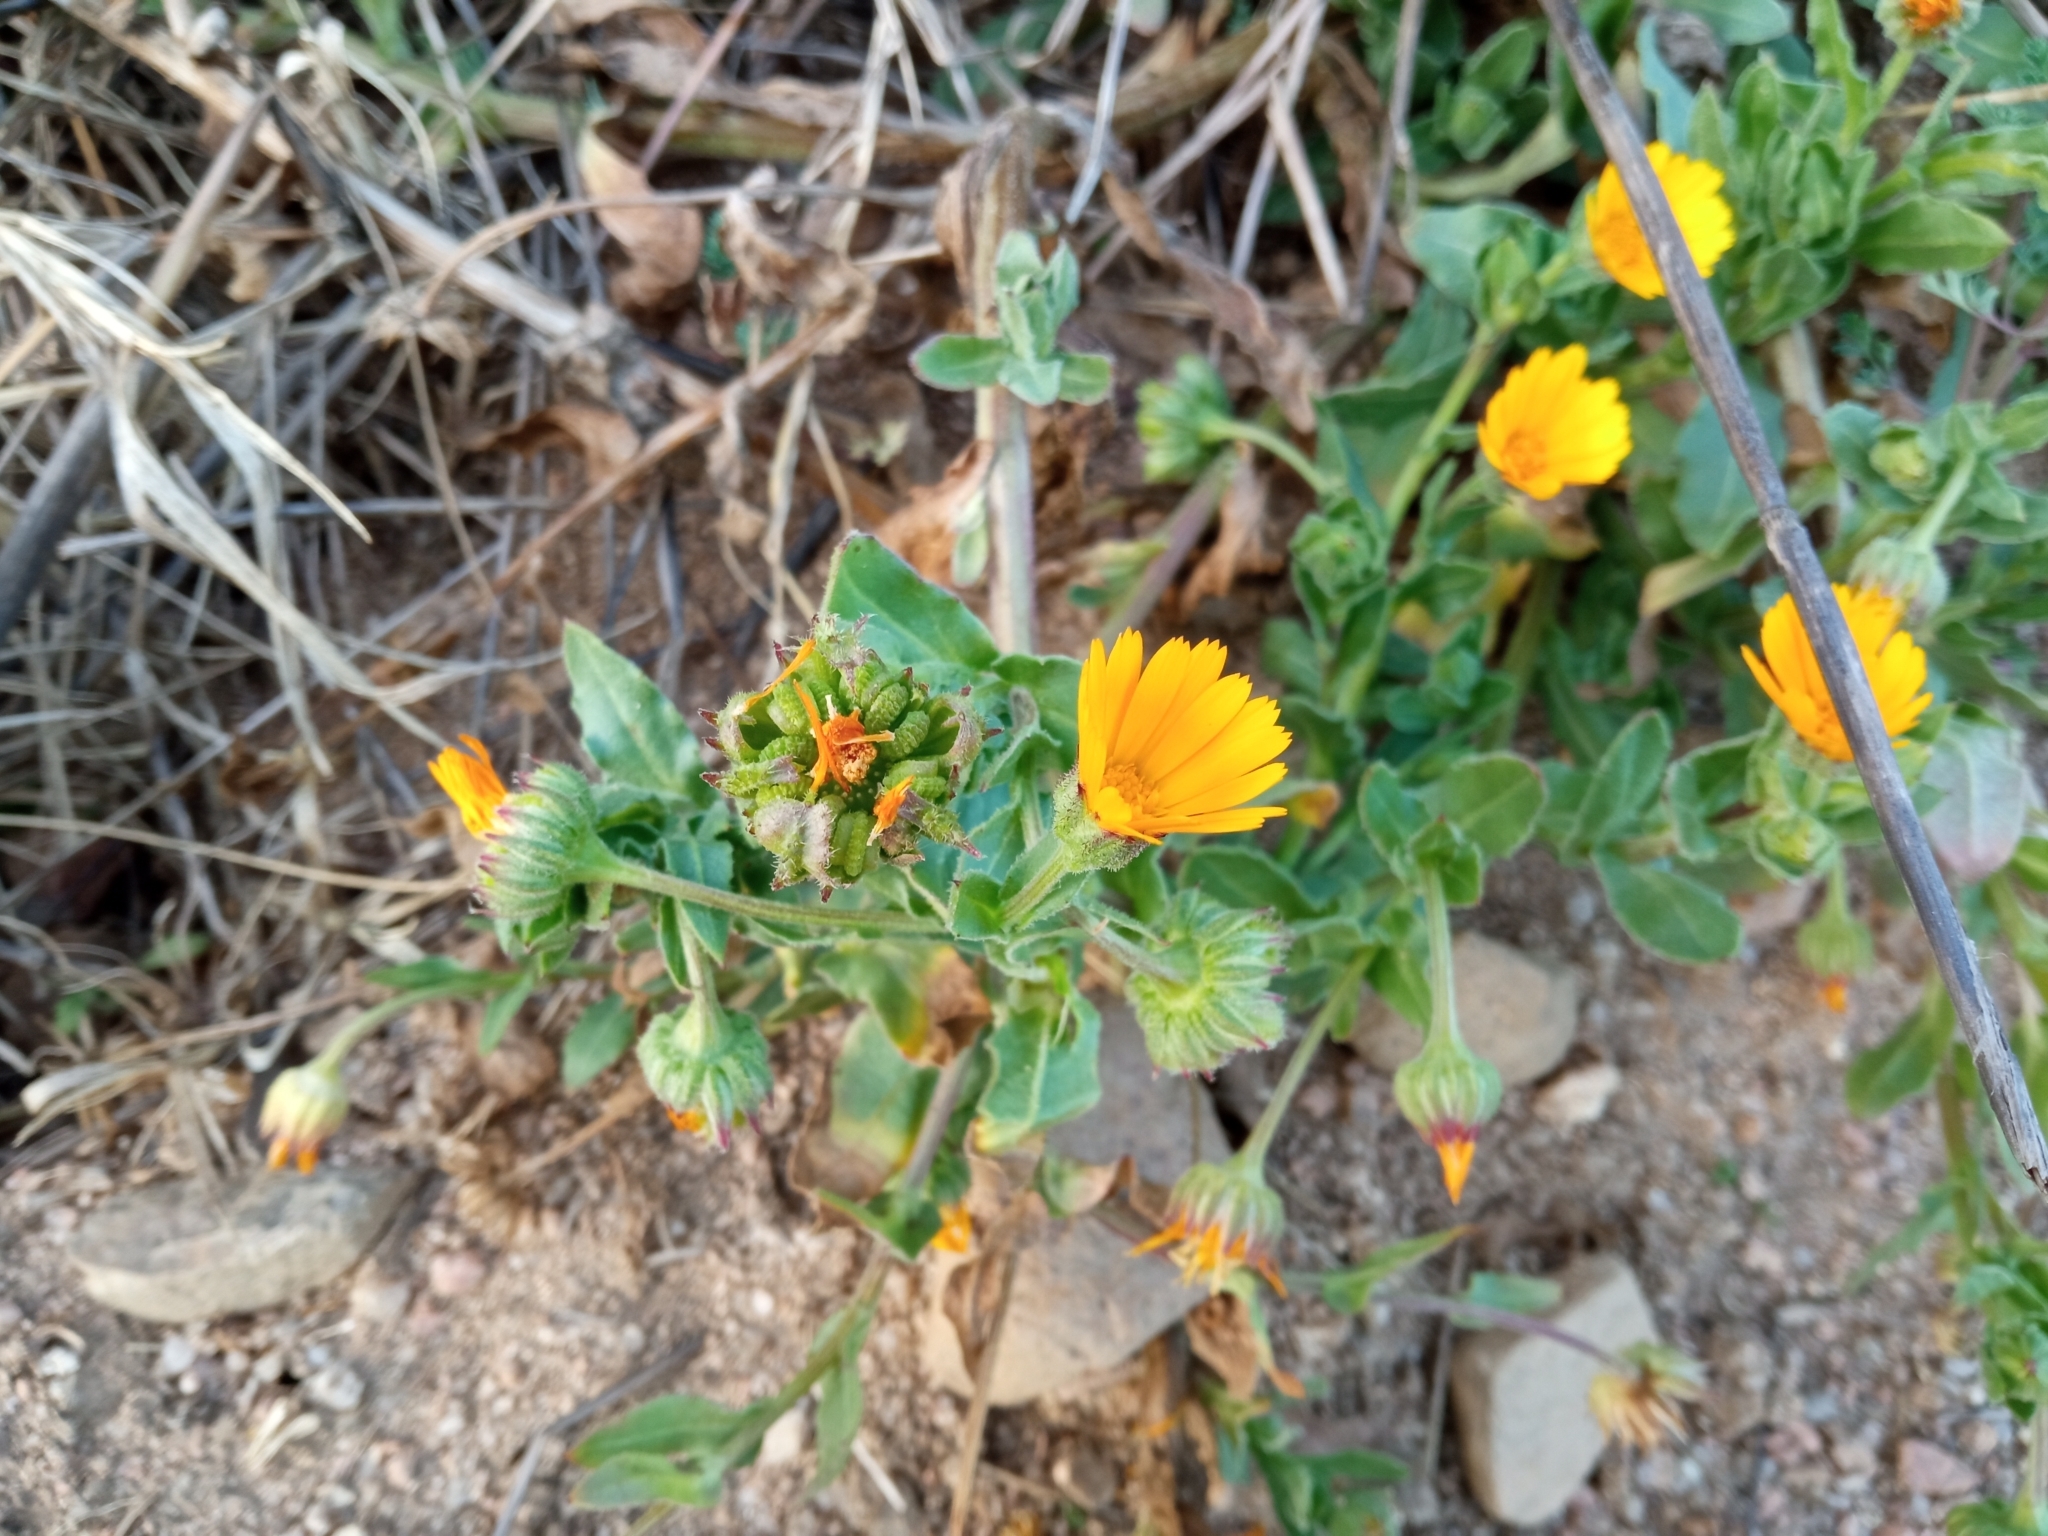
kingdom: Plantae
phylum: Tracheophyta
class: Magnoliopsida
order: Asterales
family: Asteraceae
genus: Calendula
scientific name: Calendula arvensis
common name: Field marigold
